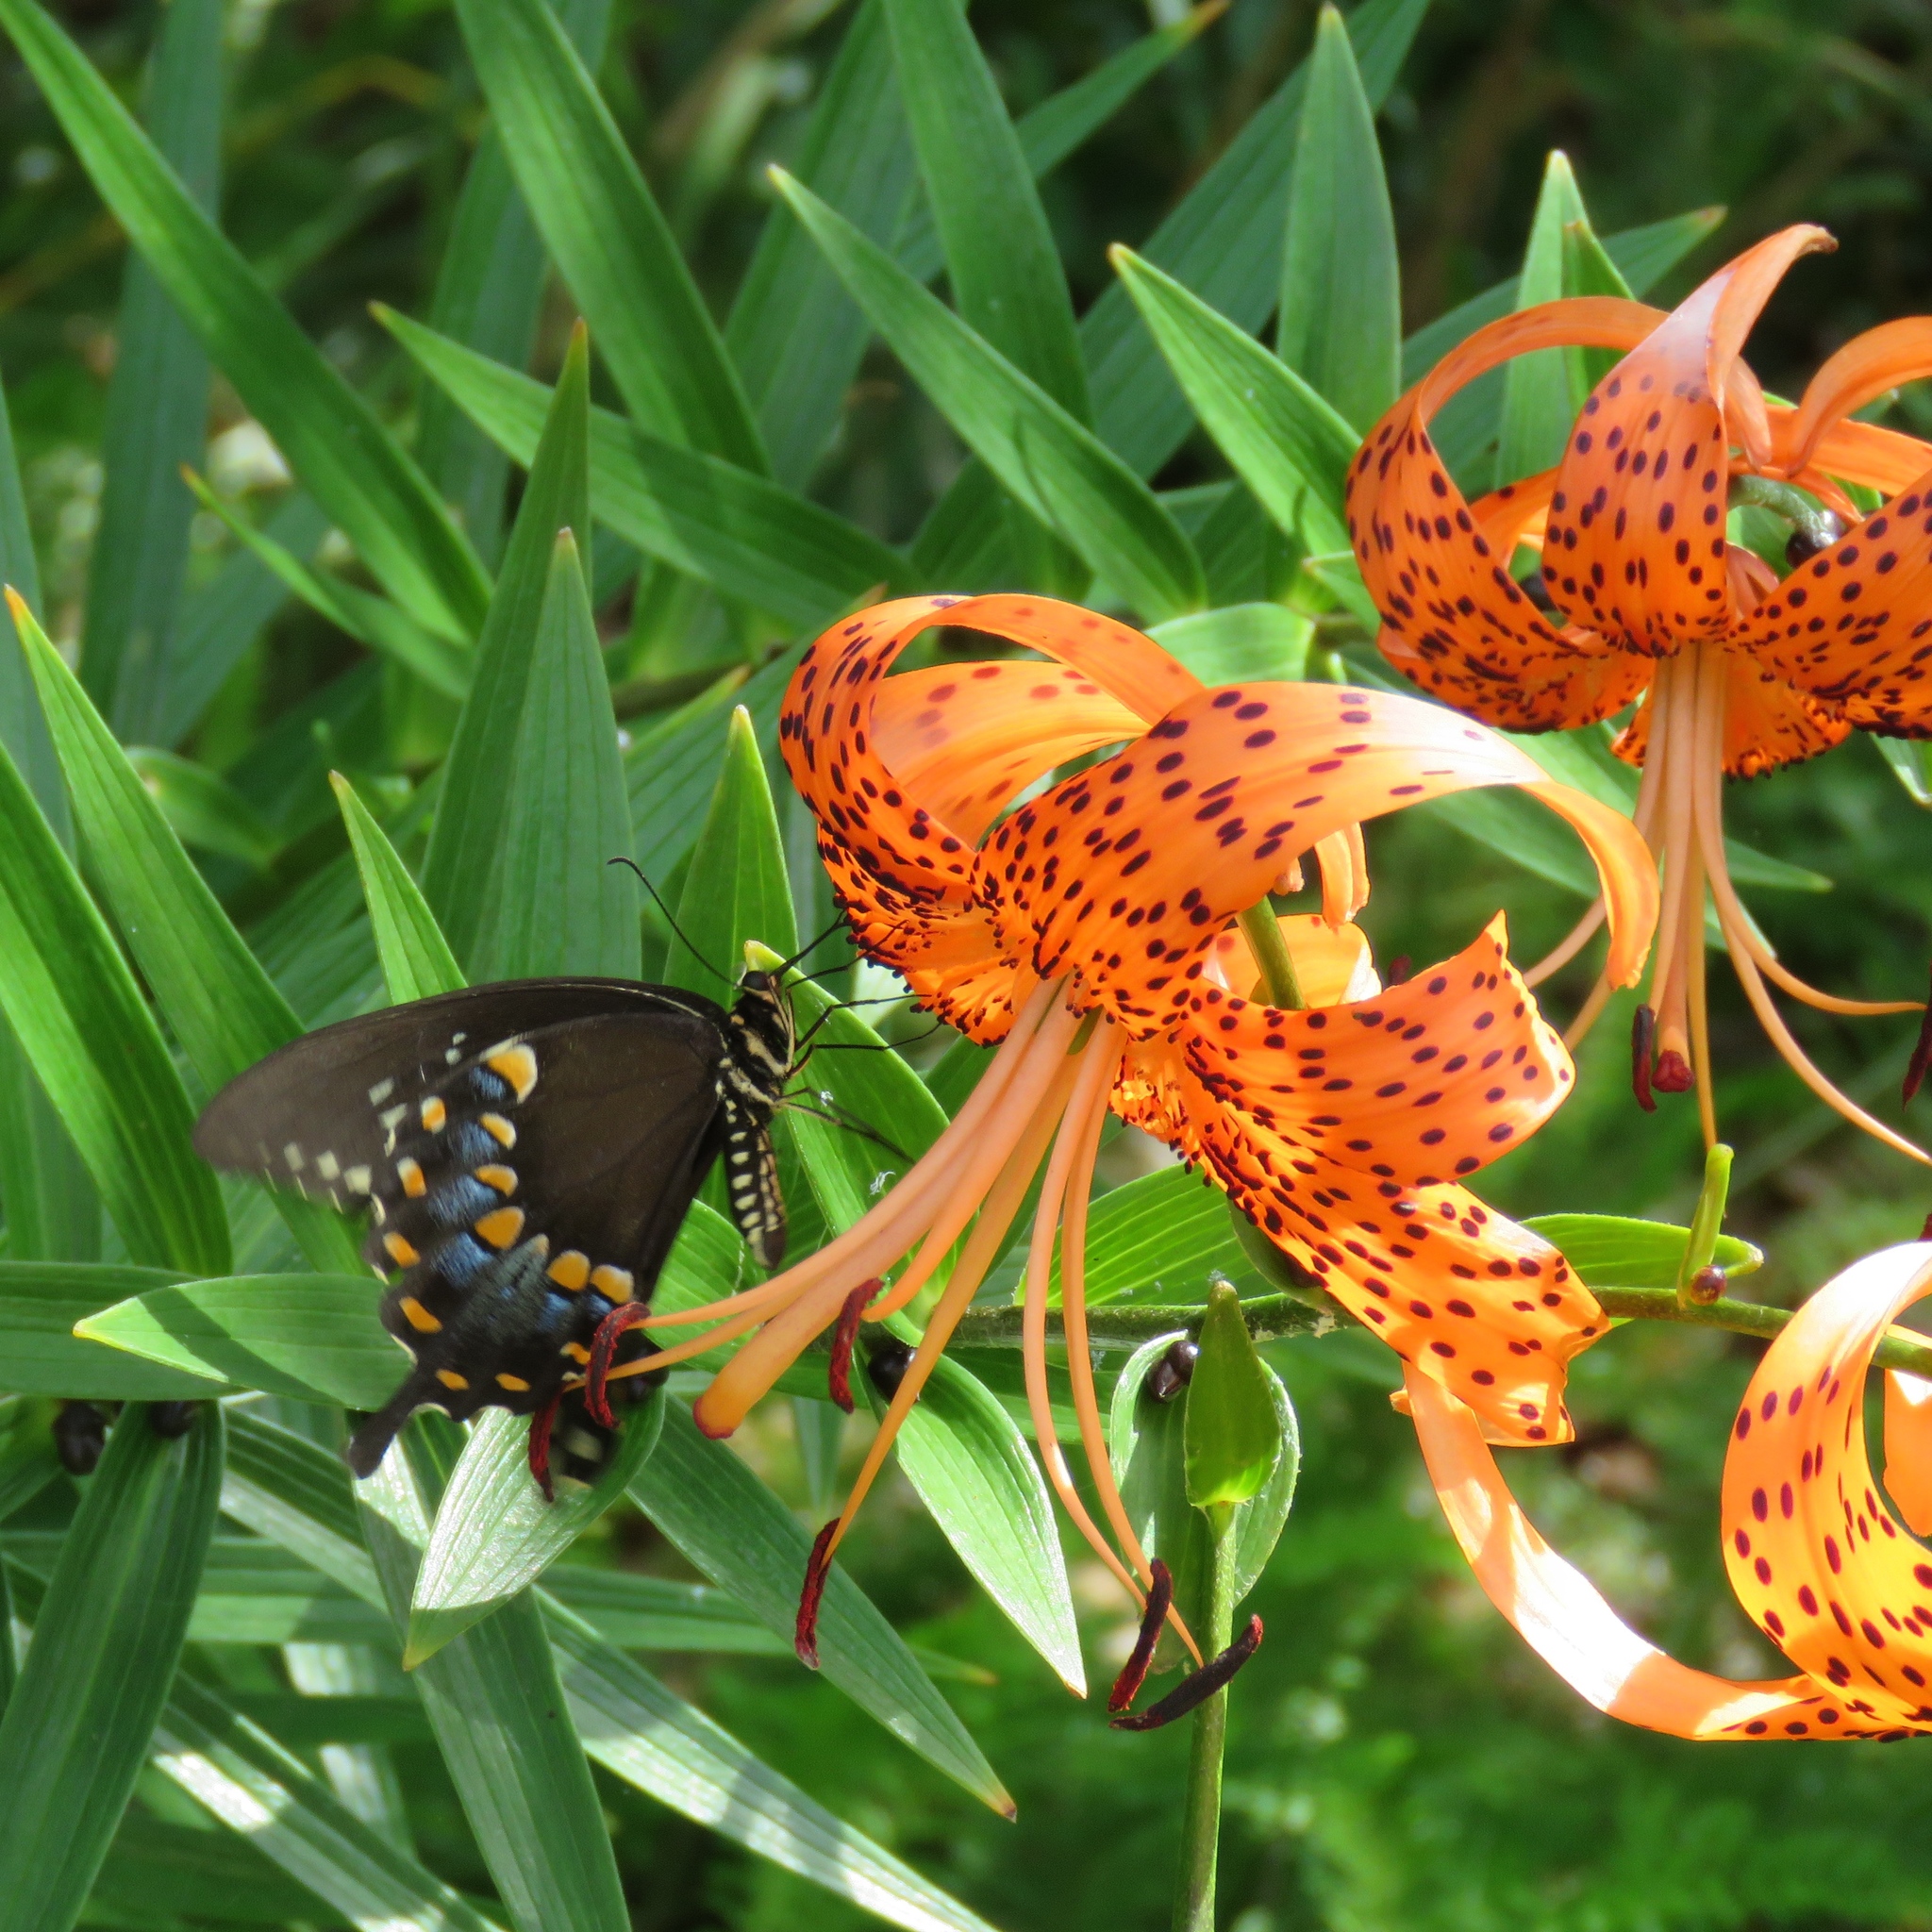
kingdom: Animalia
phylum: Arthropoda
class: Insecta
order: Lepidoptera
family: Papilionidae
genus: Papilio
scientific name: Papilio troilus
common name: Spicebush swallowtail
